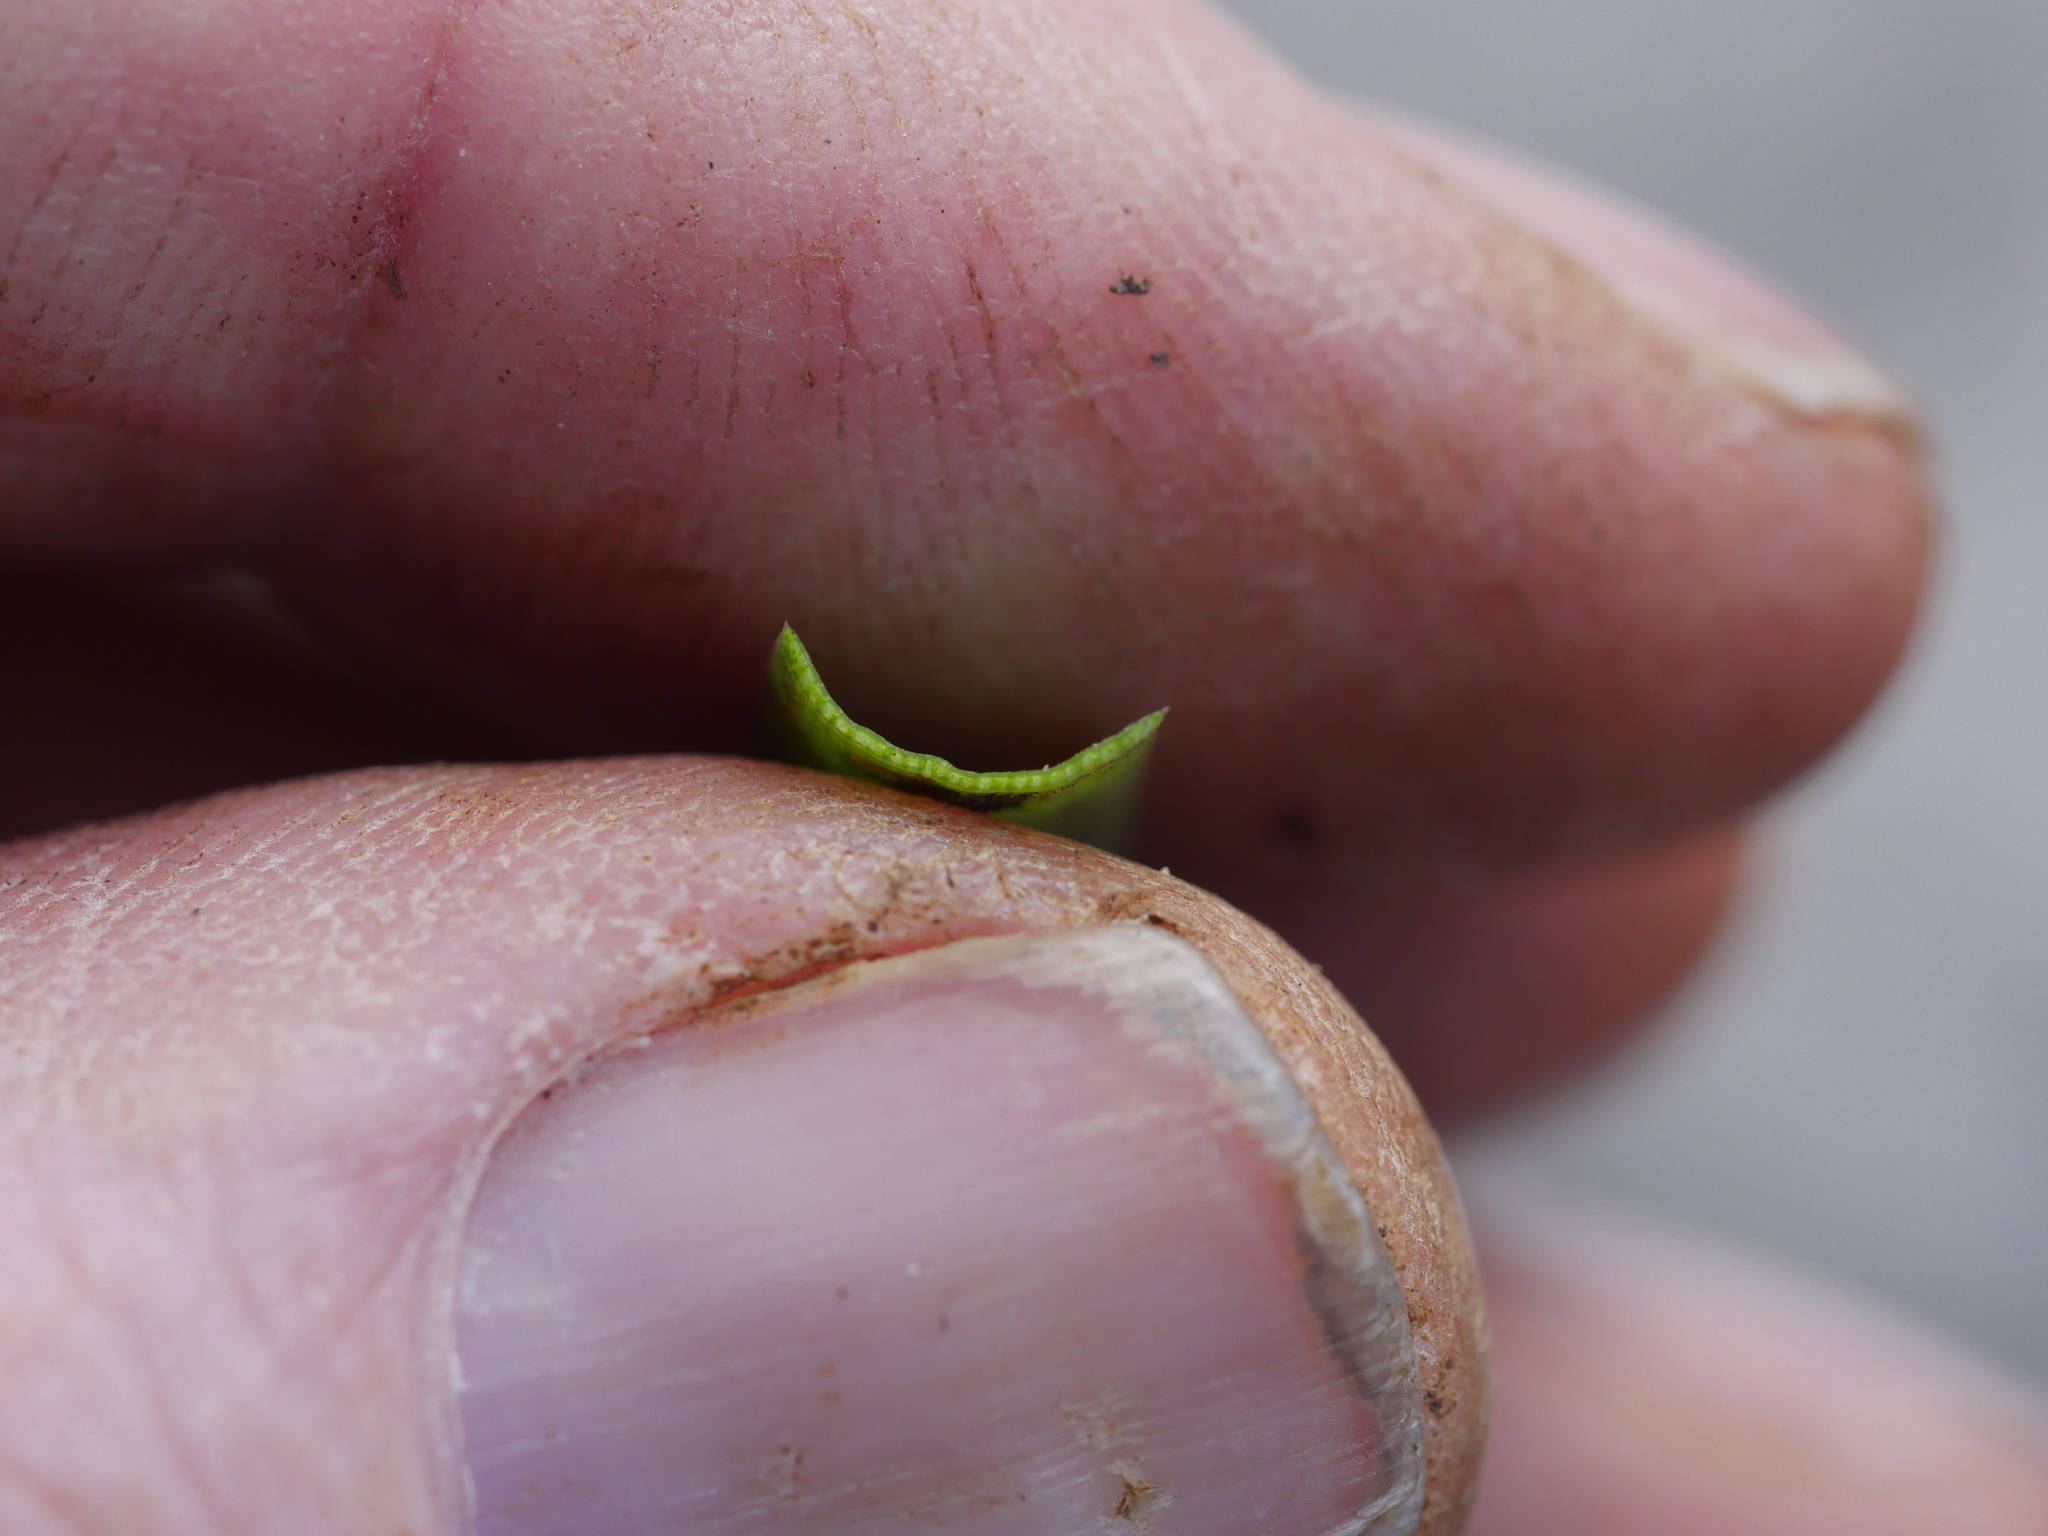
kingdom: Plantae
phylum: Tracheophyta
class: Liliopsida
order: Poales
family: Juncaceae
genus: Juncus
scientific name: Juncus planifolius
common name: Broadleaf rush
